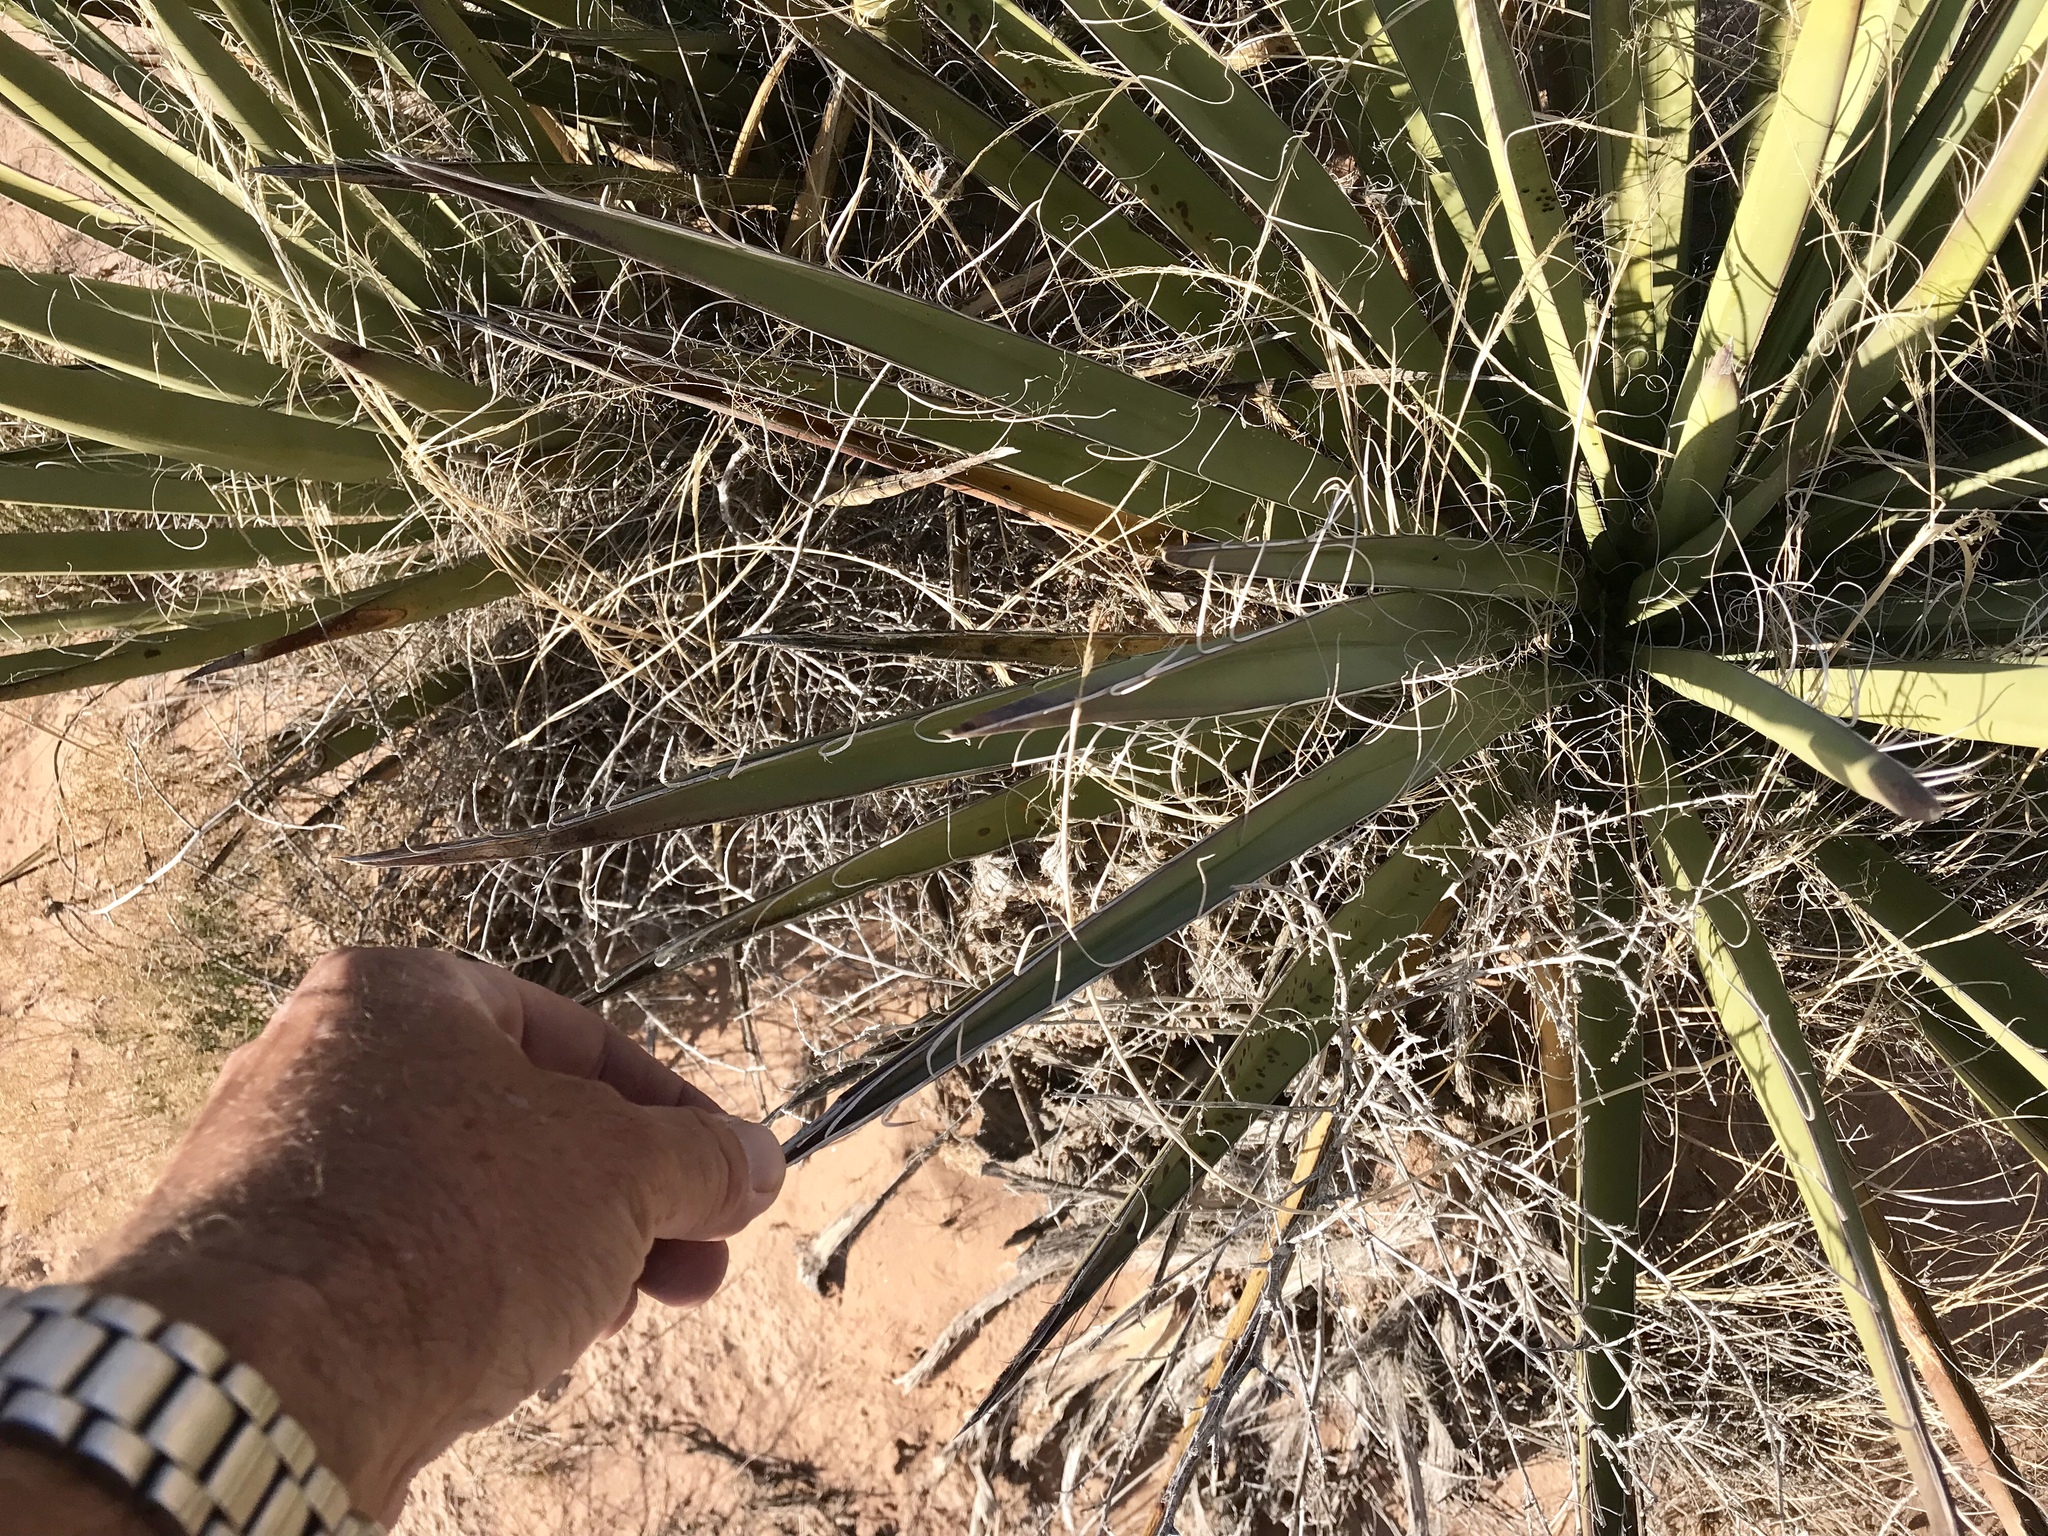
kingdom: Plantae
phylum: Tracheophyta
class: Liliopsida
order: Asparagales
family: Asparagaceae
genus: Yucca
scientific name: Yucca baccata
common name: Banana yucca
